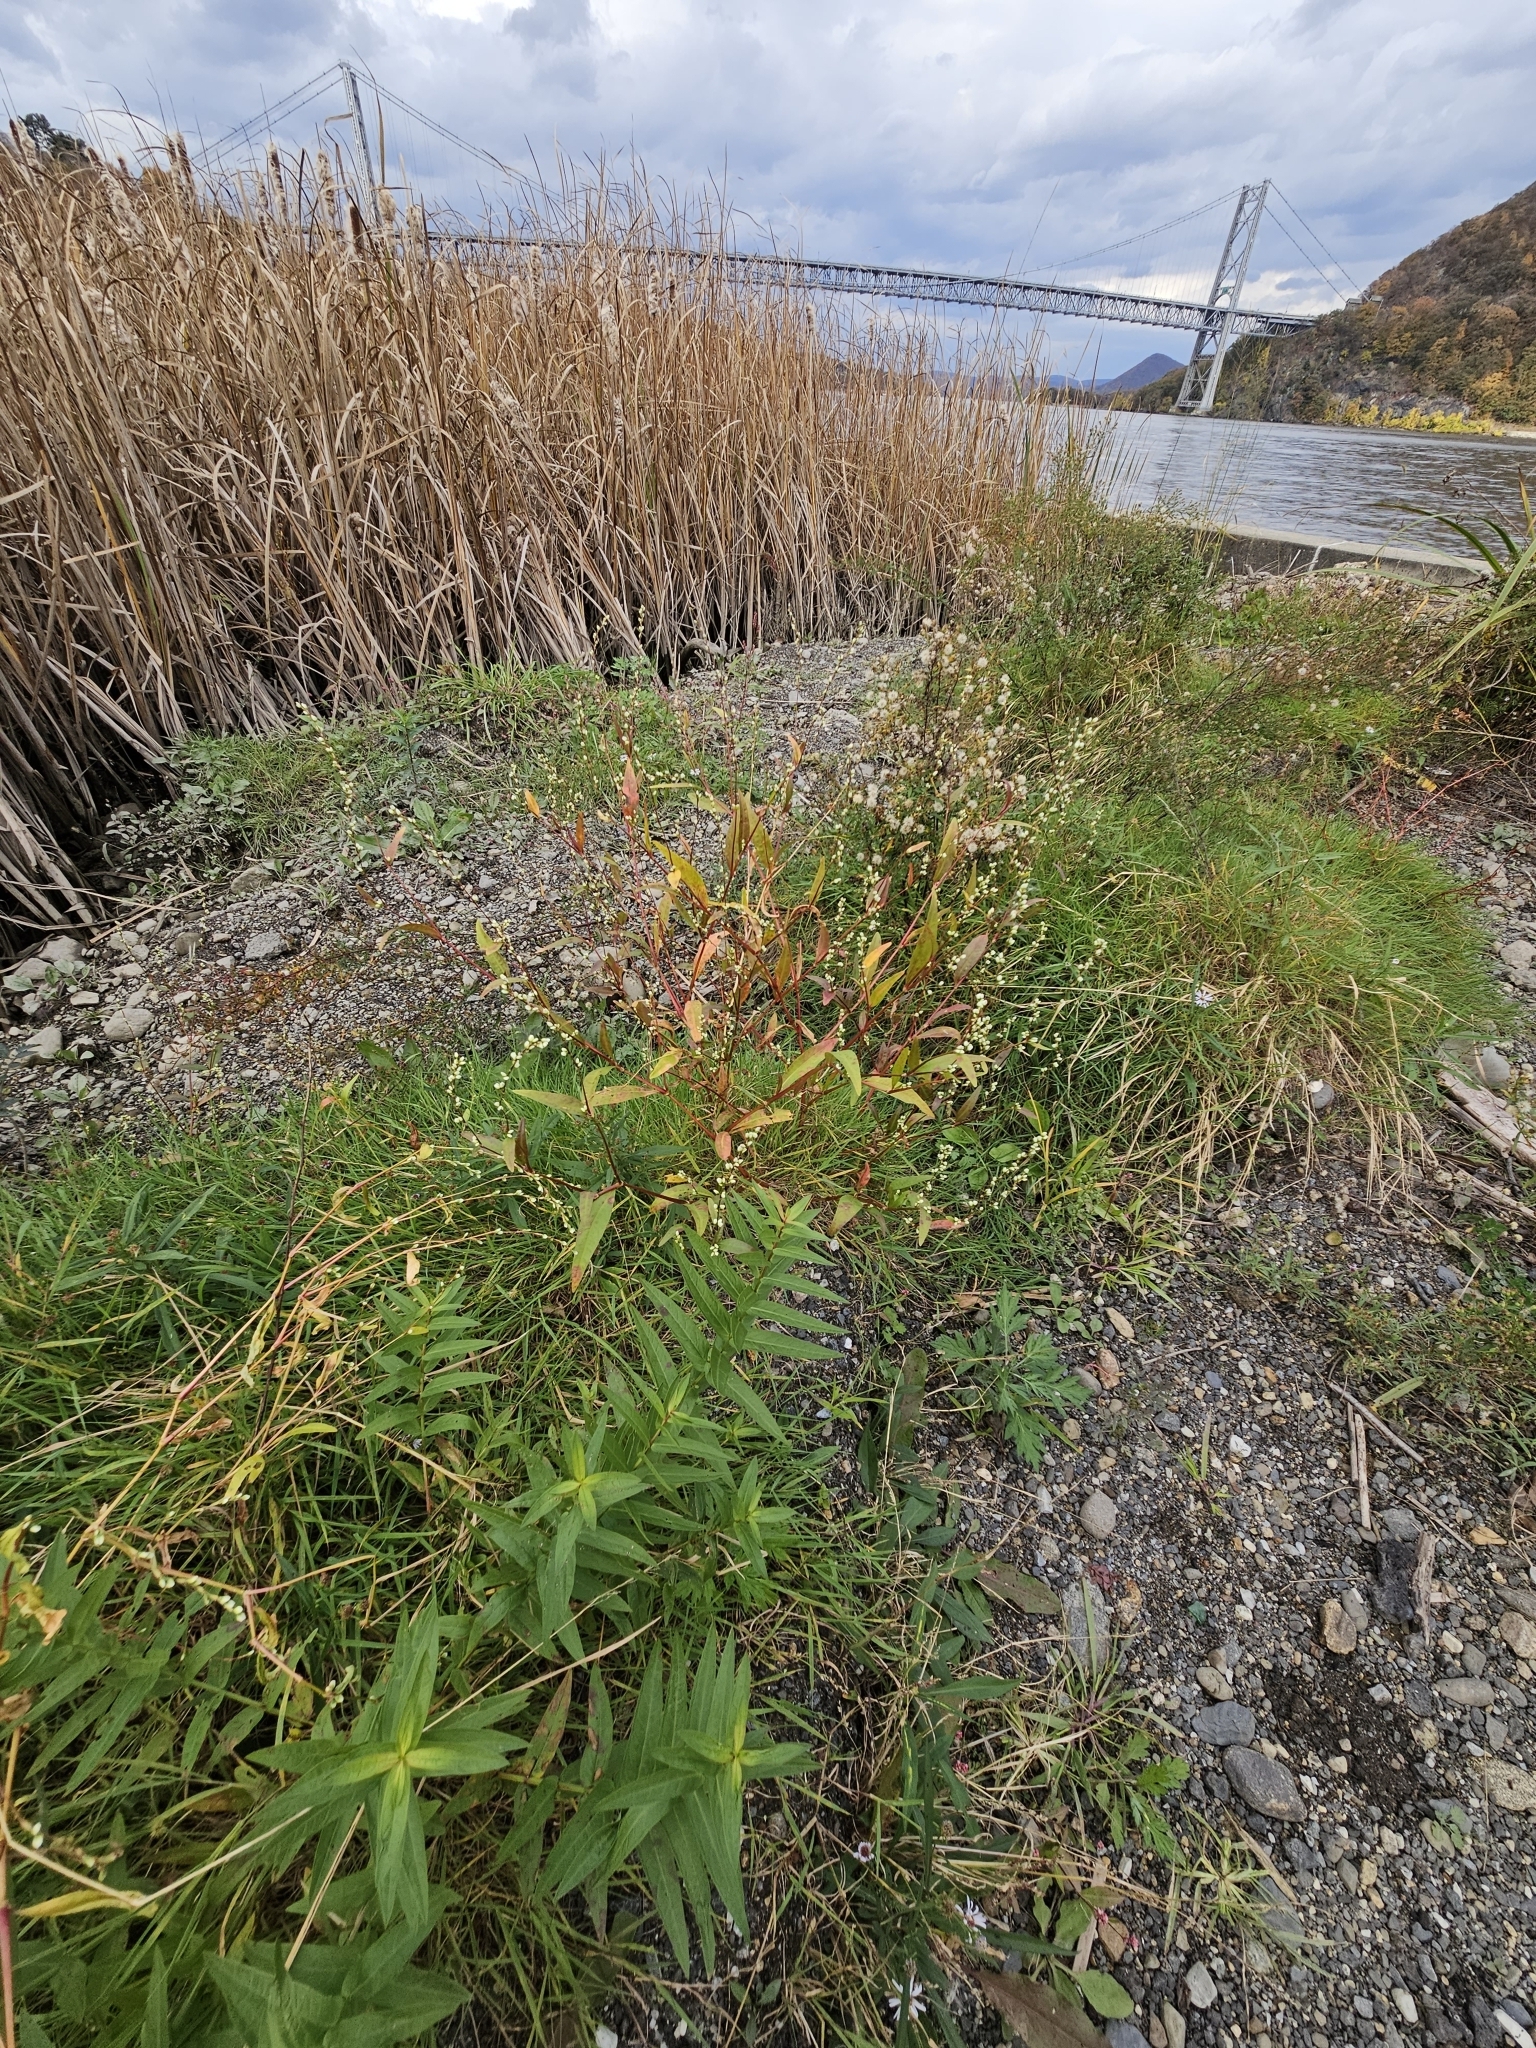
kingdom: Plantae
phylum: Tracheophyta
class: Magnoliopsida
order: Caryophyllales
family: Polygonaceae
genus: Persicaria
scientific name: Persicaria punctata
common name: Dotted smartweed
